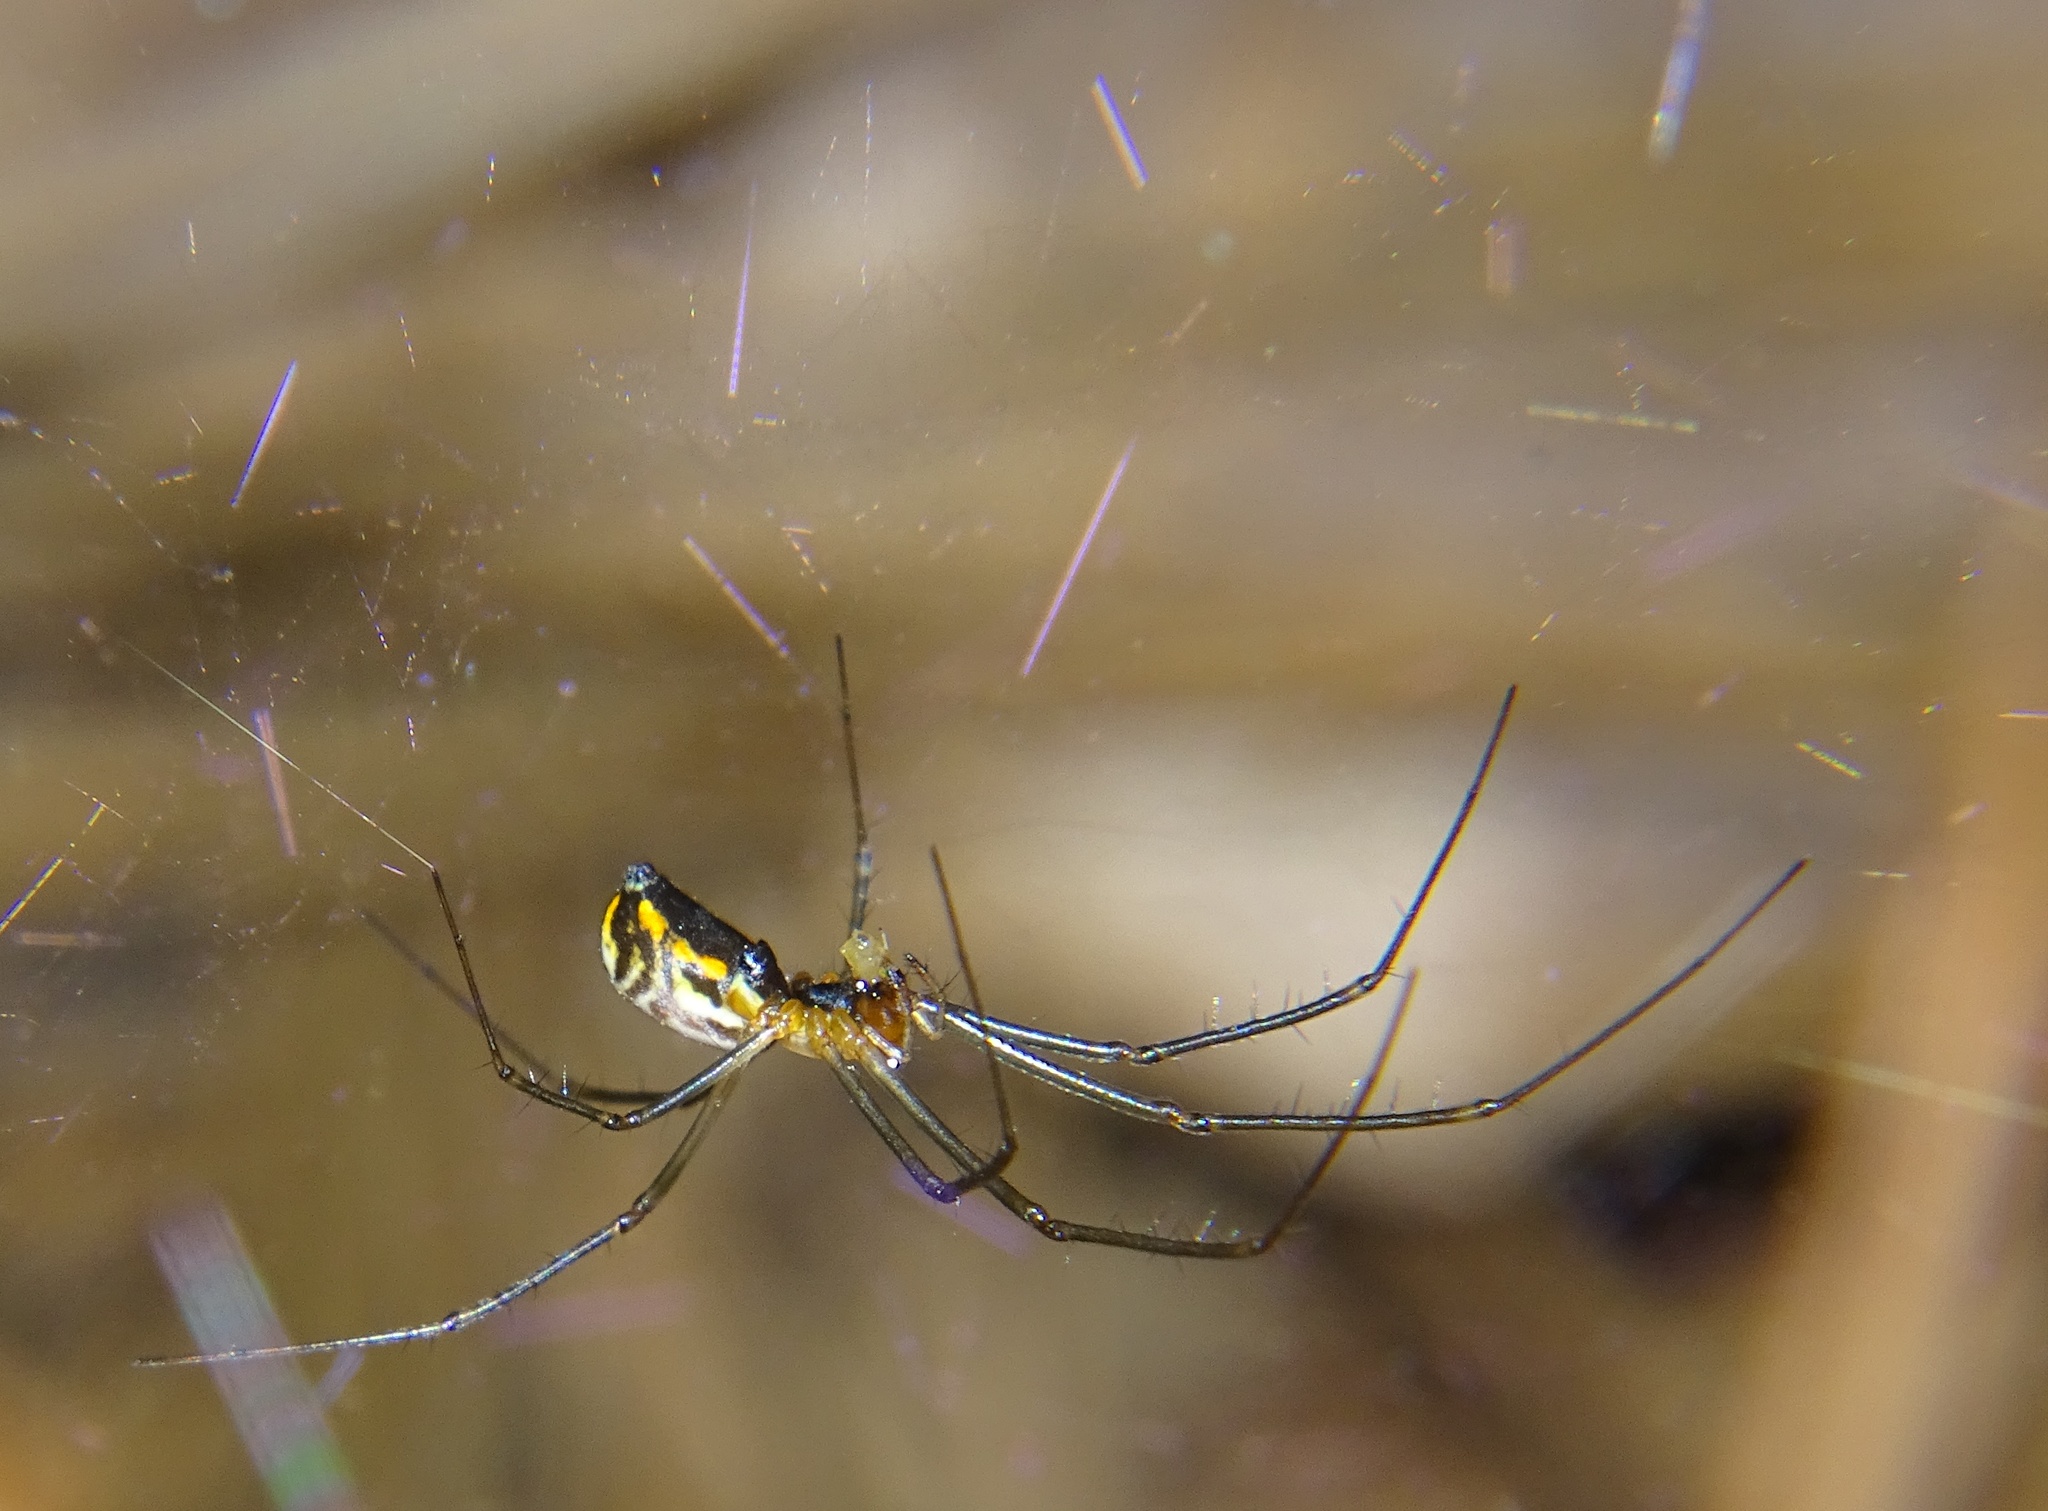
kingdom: Animalia
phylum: Arthropoda
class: Arachnida
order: Araneae
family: Linyphiidae
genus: Neriene
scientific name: Neriene radiata
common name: Filmy dome spider
